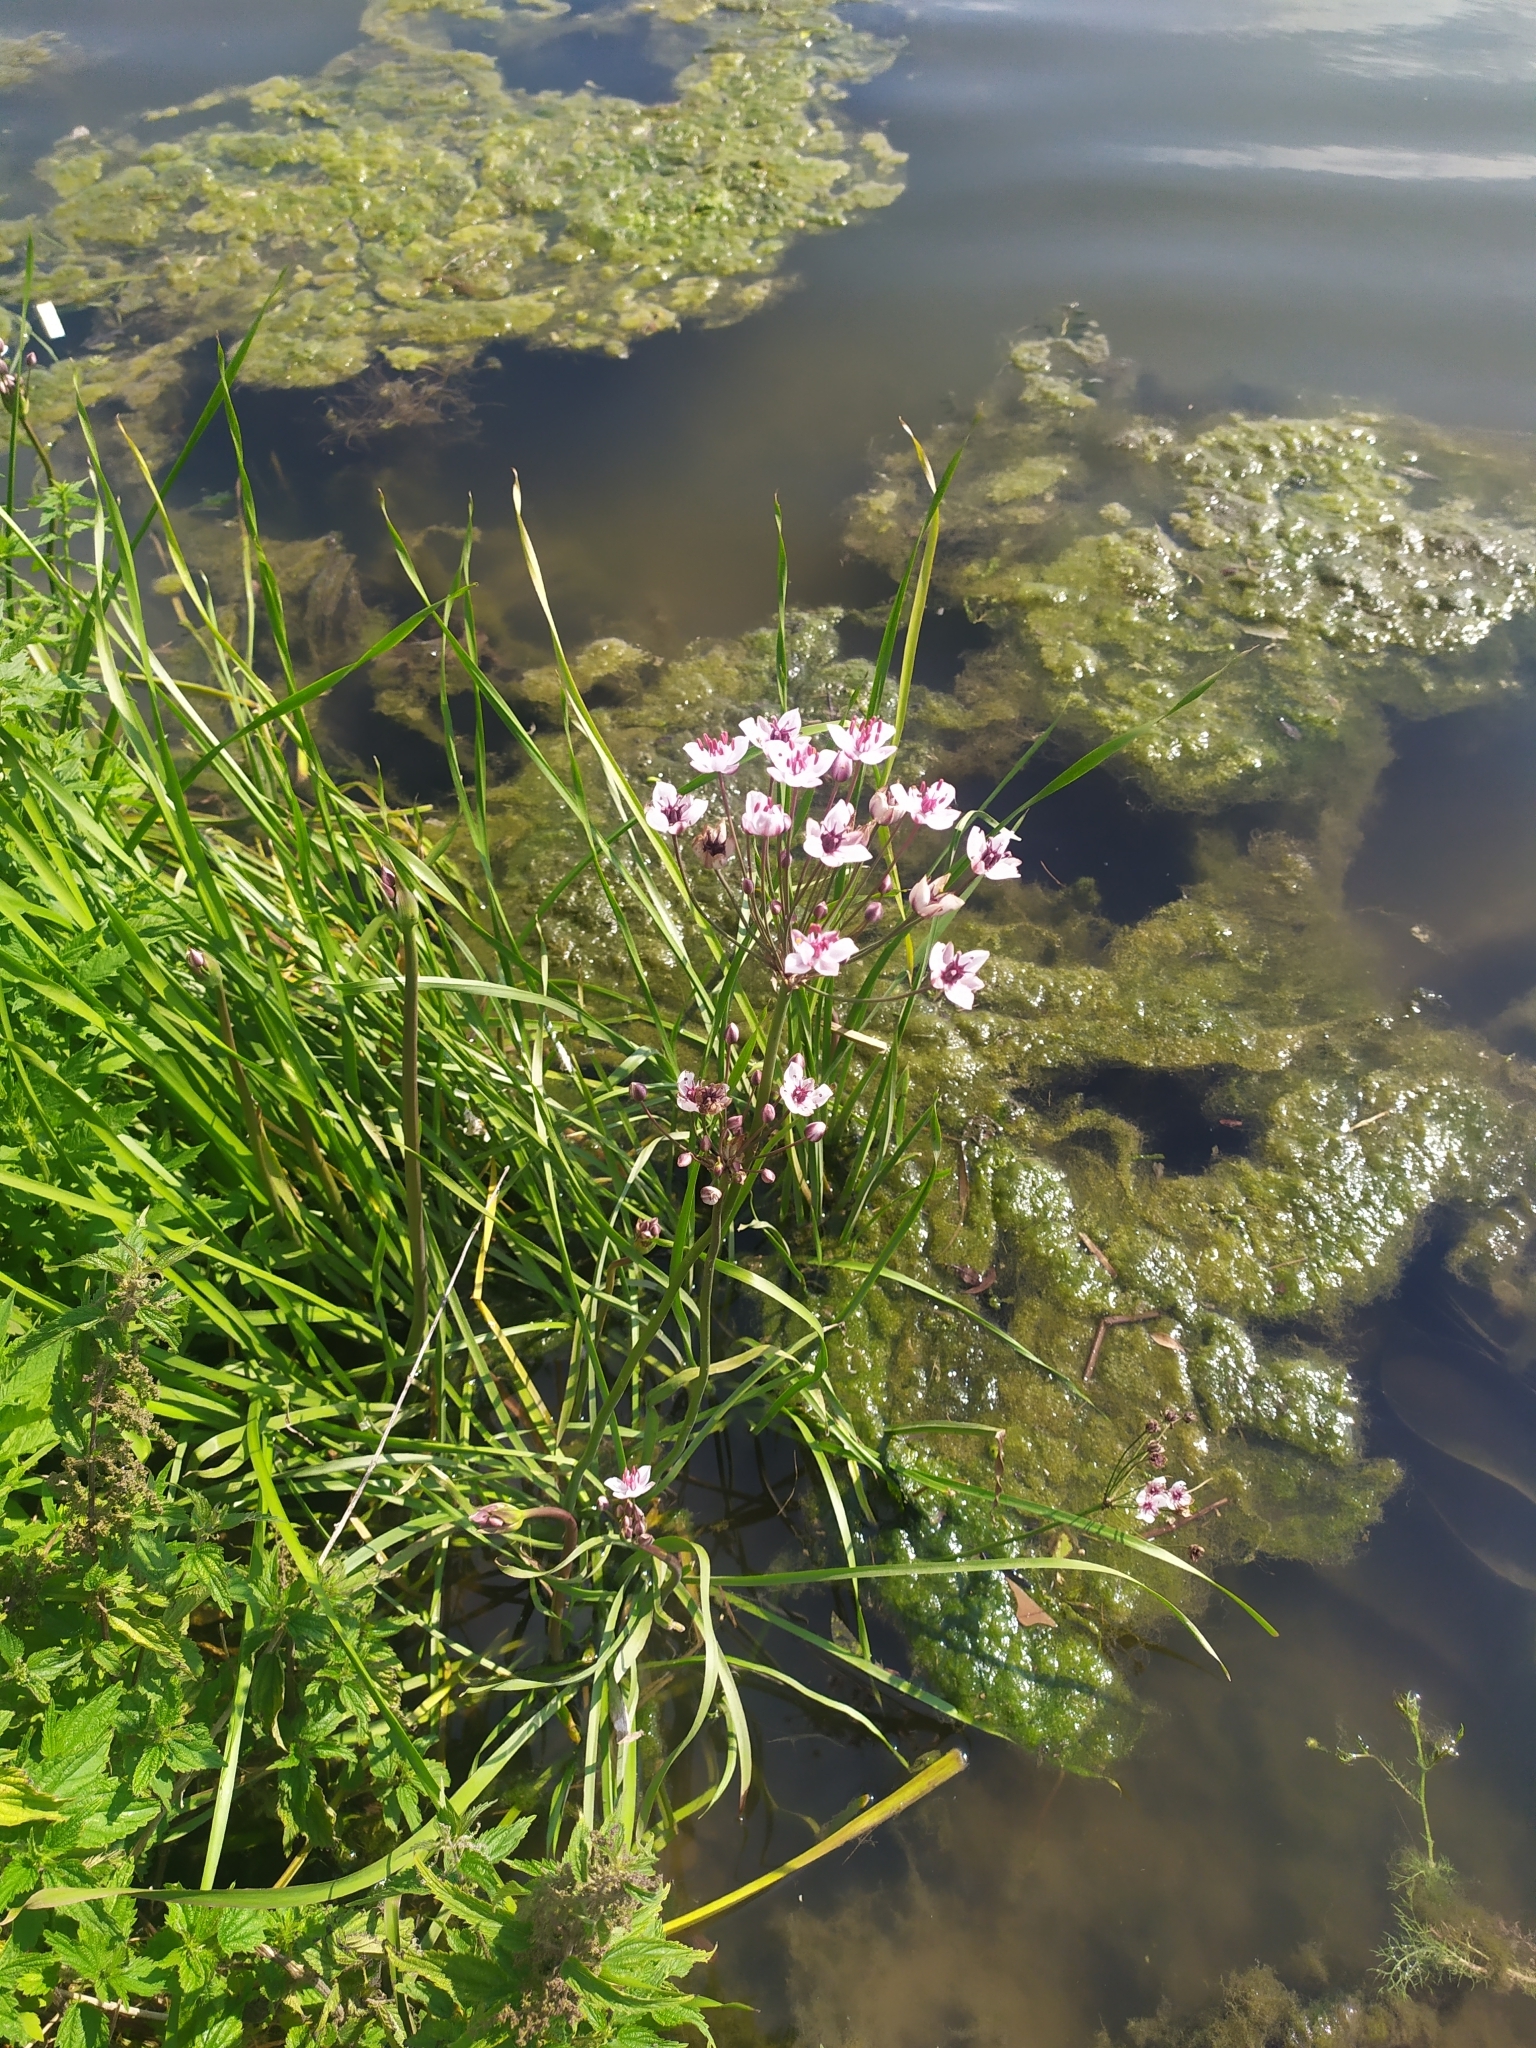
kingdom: Plantae
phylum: Tracheophyta
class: Liliopsida
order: Alismatales
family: Butomaceae
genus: Butomus
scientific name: Butomus umbellatus
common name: Flowering-rush
